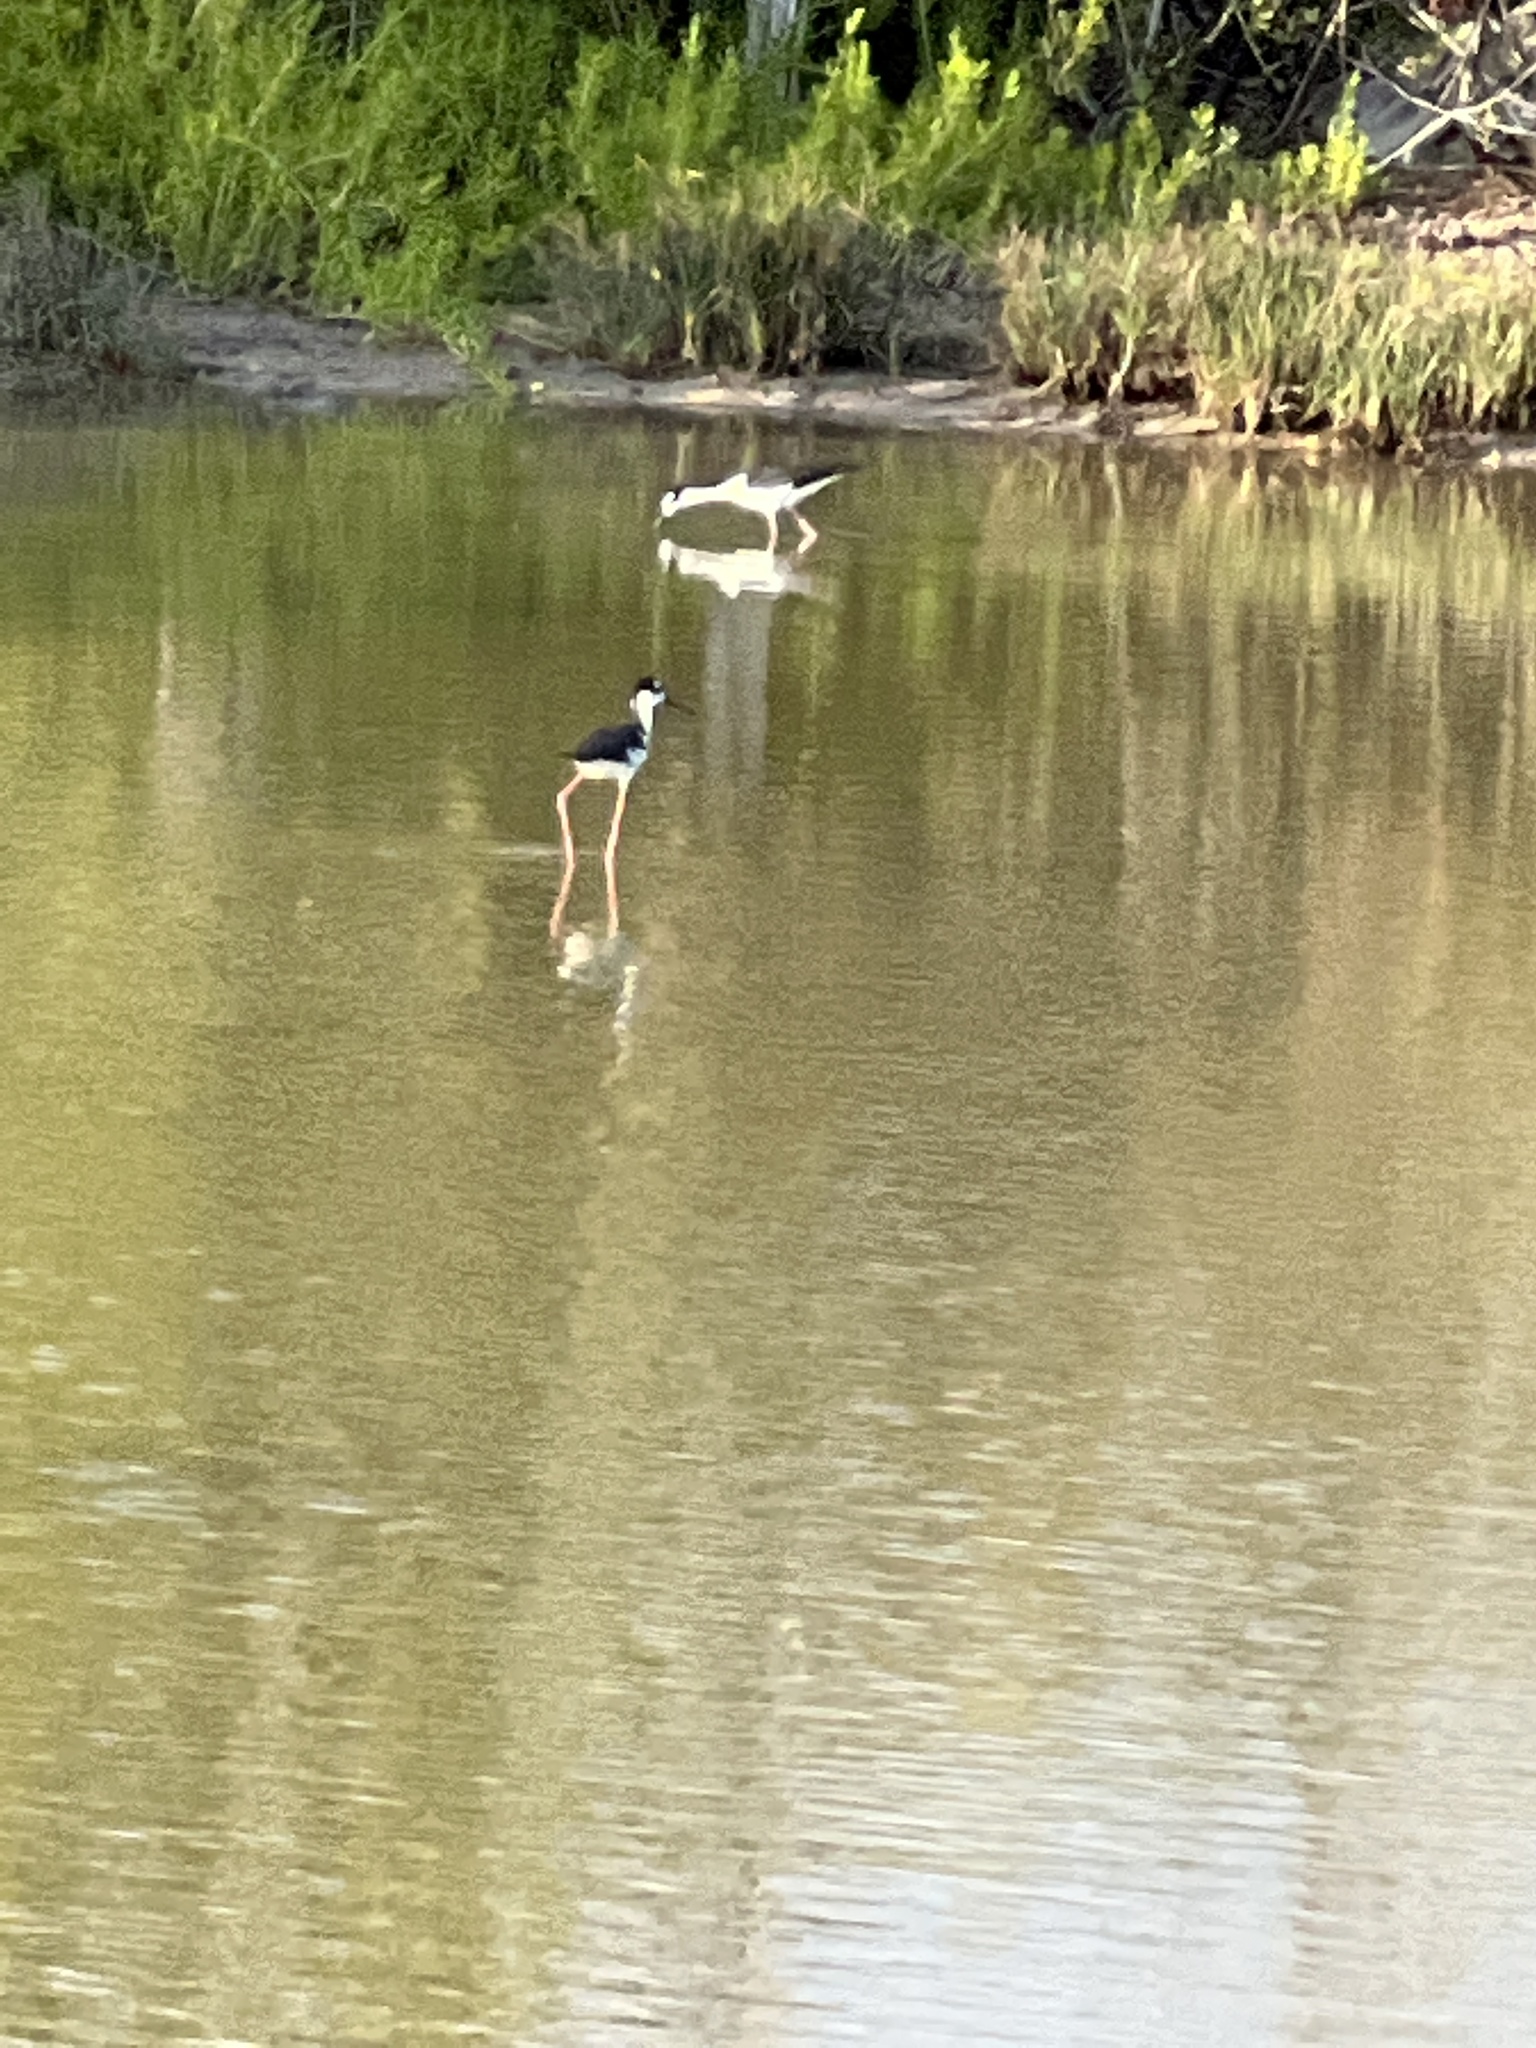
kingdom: Animalia
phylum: Chordata
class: Aves
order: Charadriiformes
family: Recurvirostridae
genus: Himantopus
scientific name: Himantopus mexicanus
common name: Black-necked stilt
